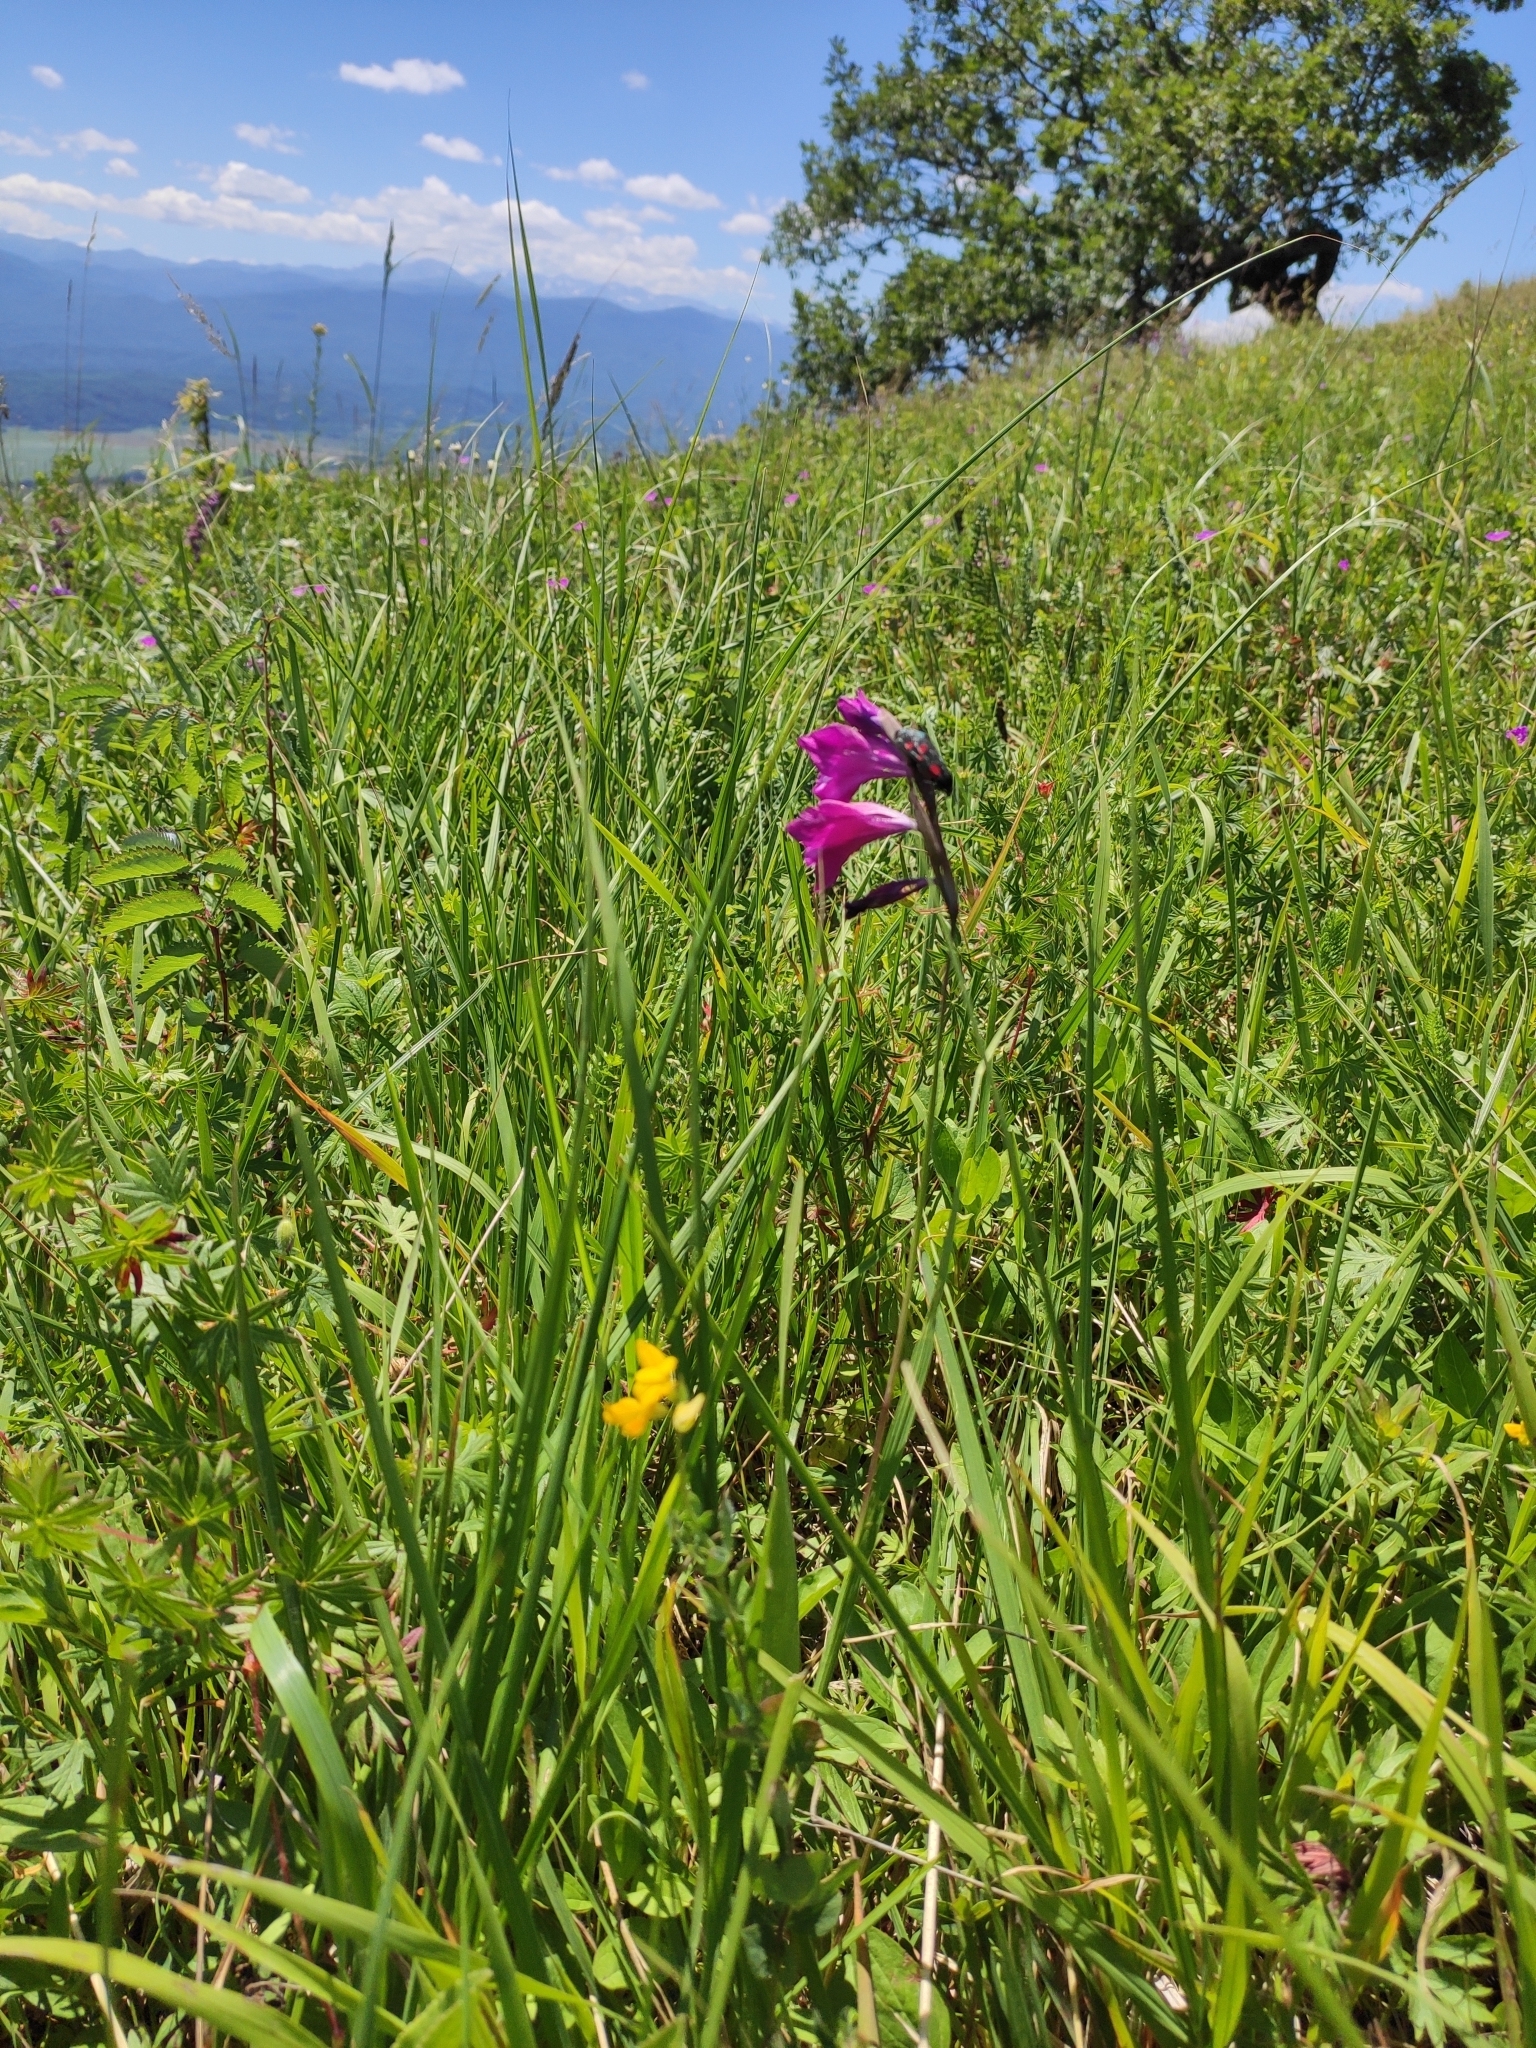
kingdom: Plantae
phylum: Tracheophyta
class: Liliopsida
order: Asparagales
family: Iridaceae
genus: Gladiolus
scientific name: Gladiolus tenuis
